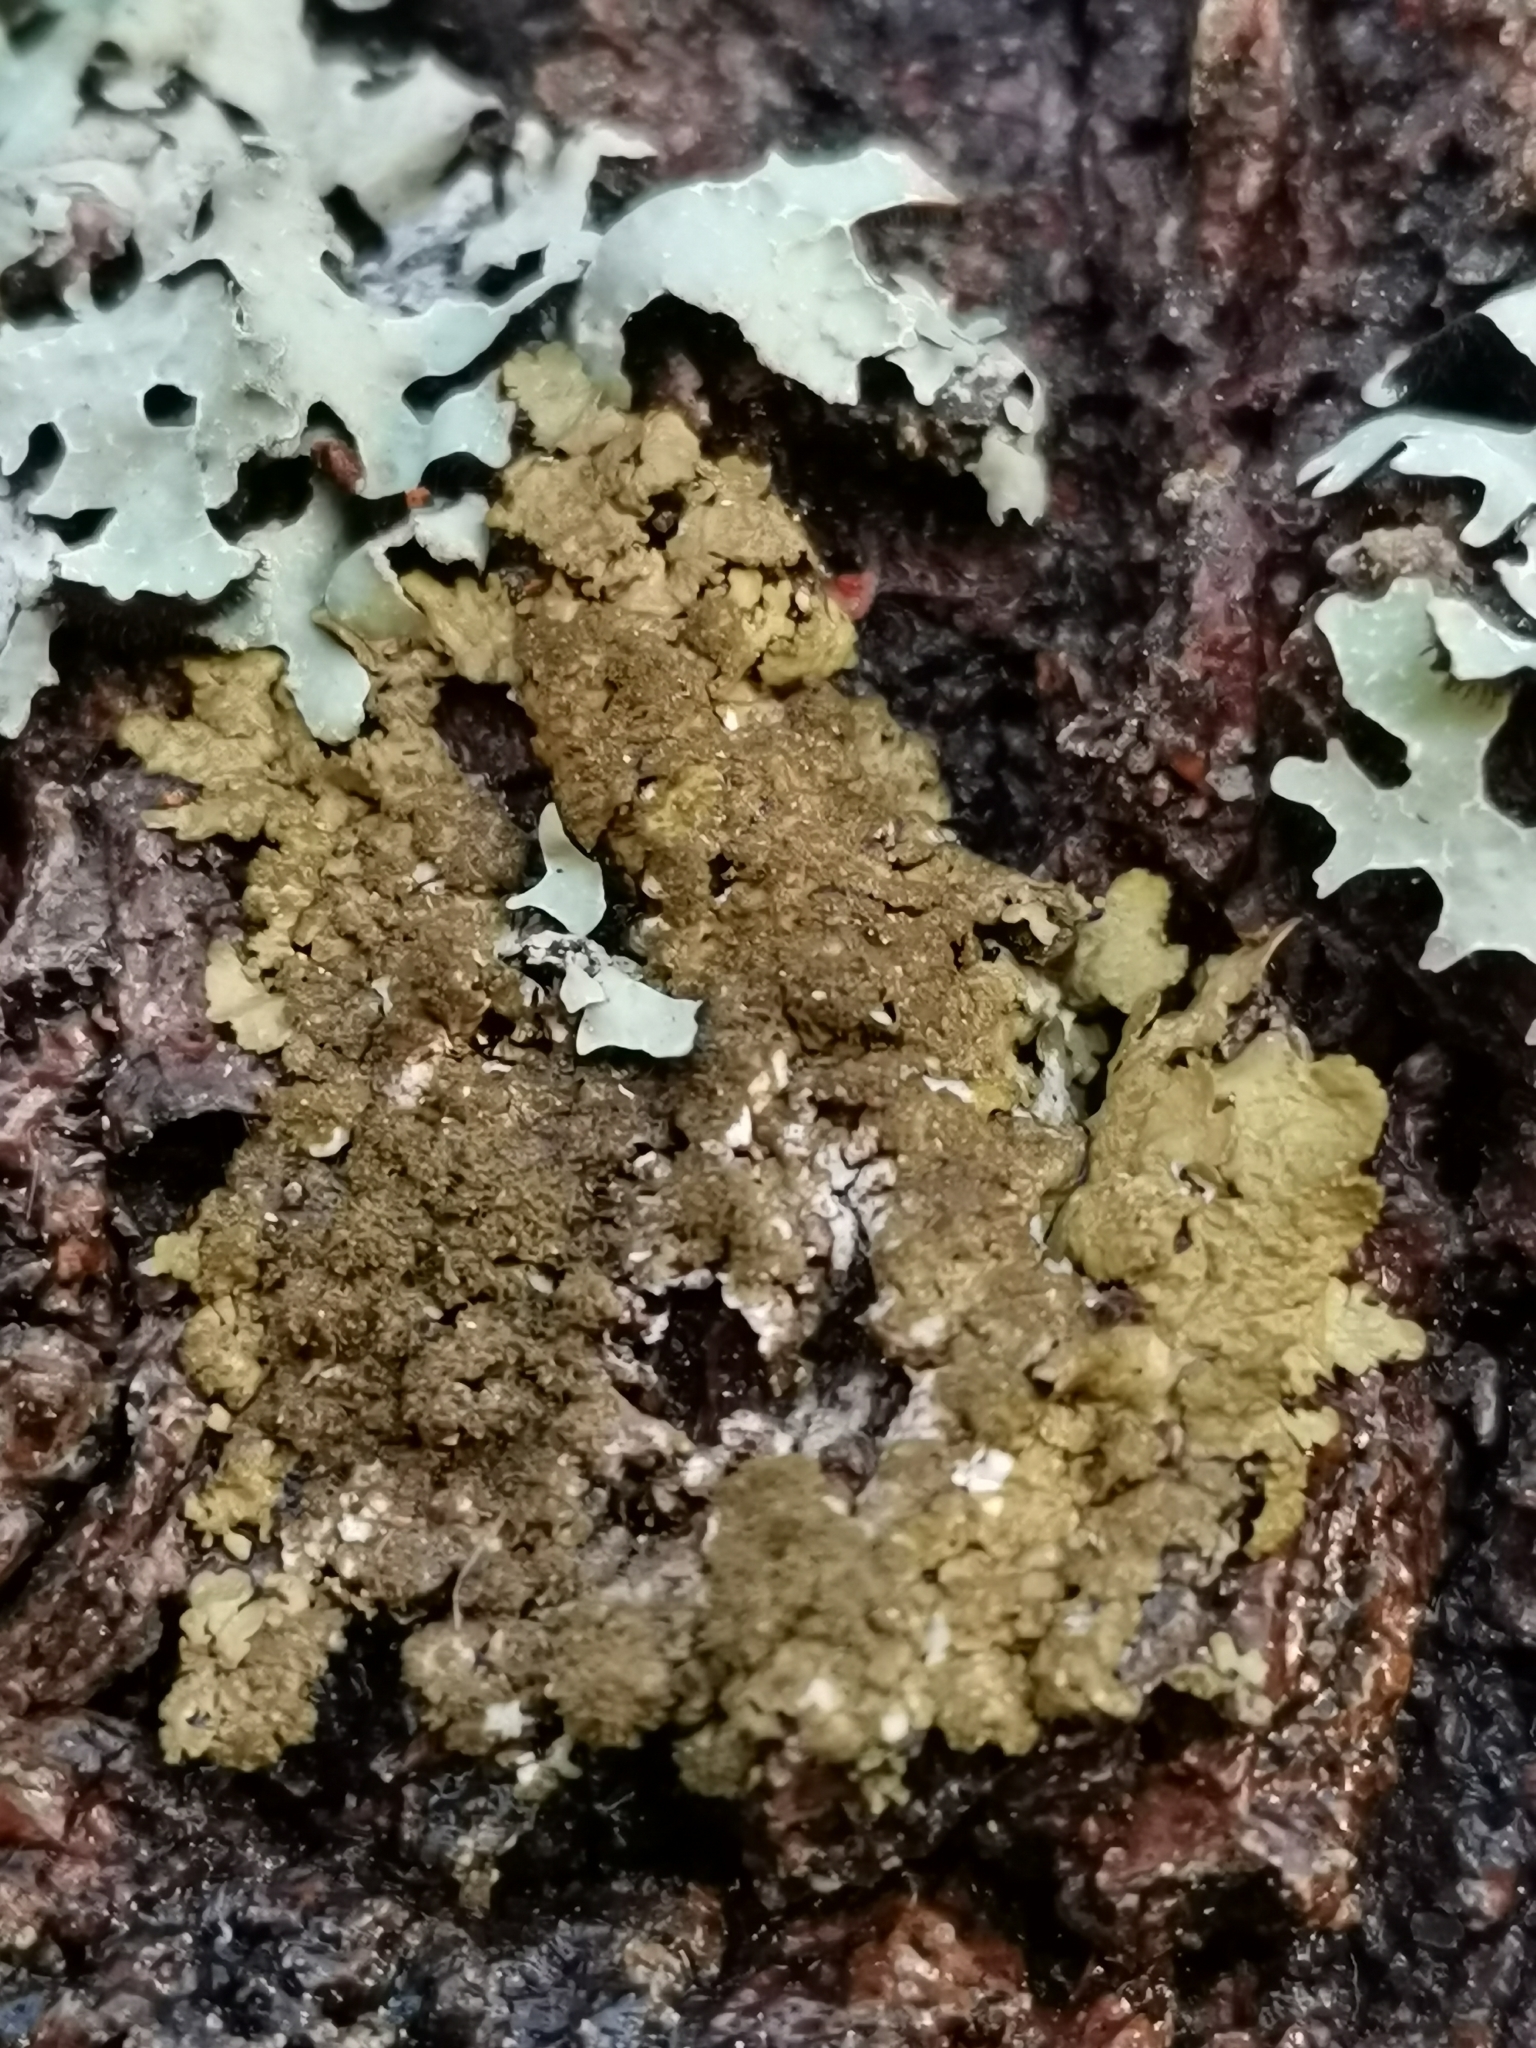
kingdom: Fungi
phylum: Ascomycota
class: Lecanoromycetes
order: Lecanorales
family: Parmeliaceae
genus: Melanohalea
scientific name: Melanohalea exasperatula
